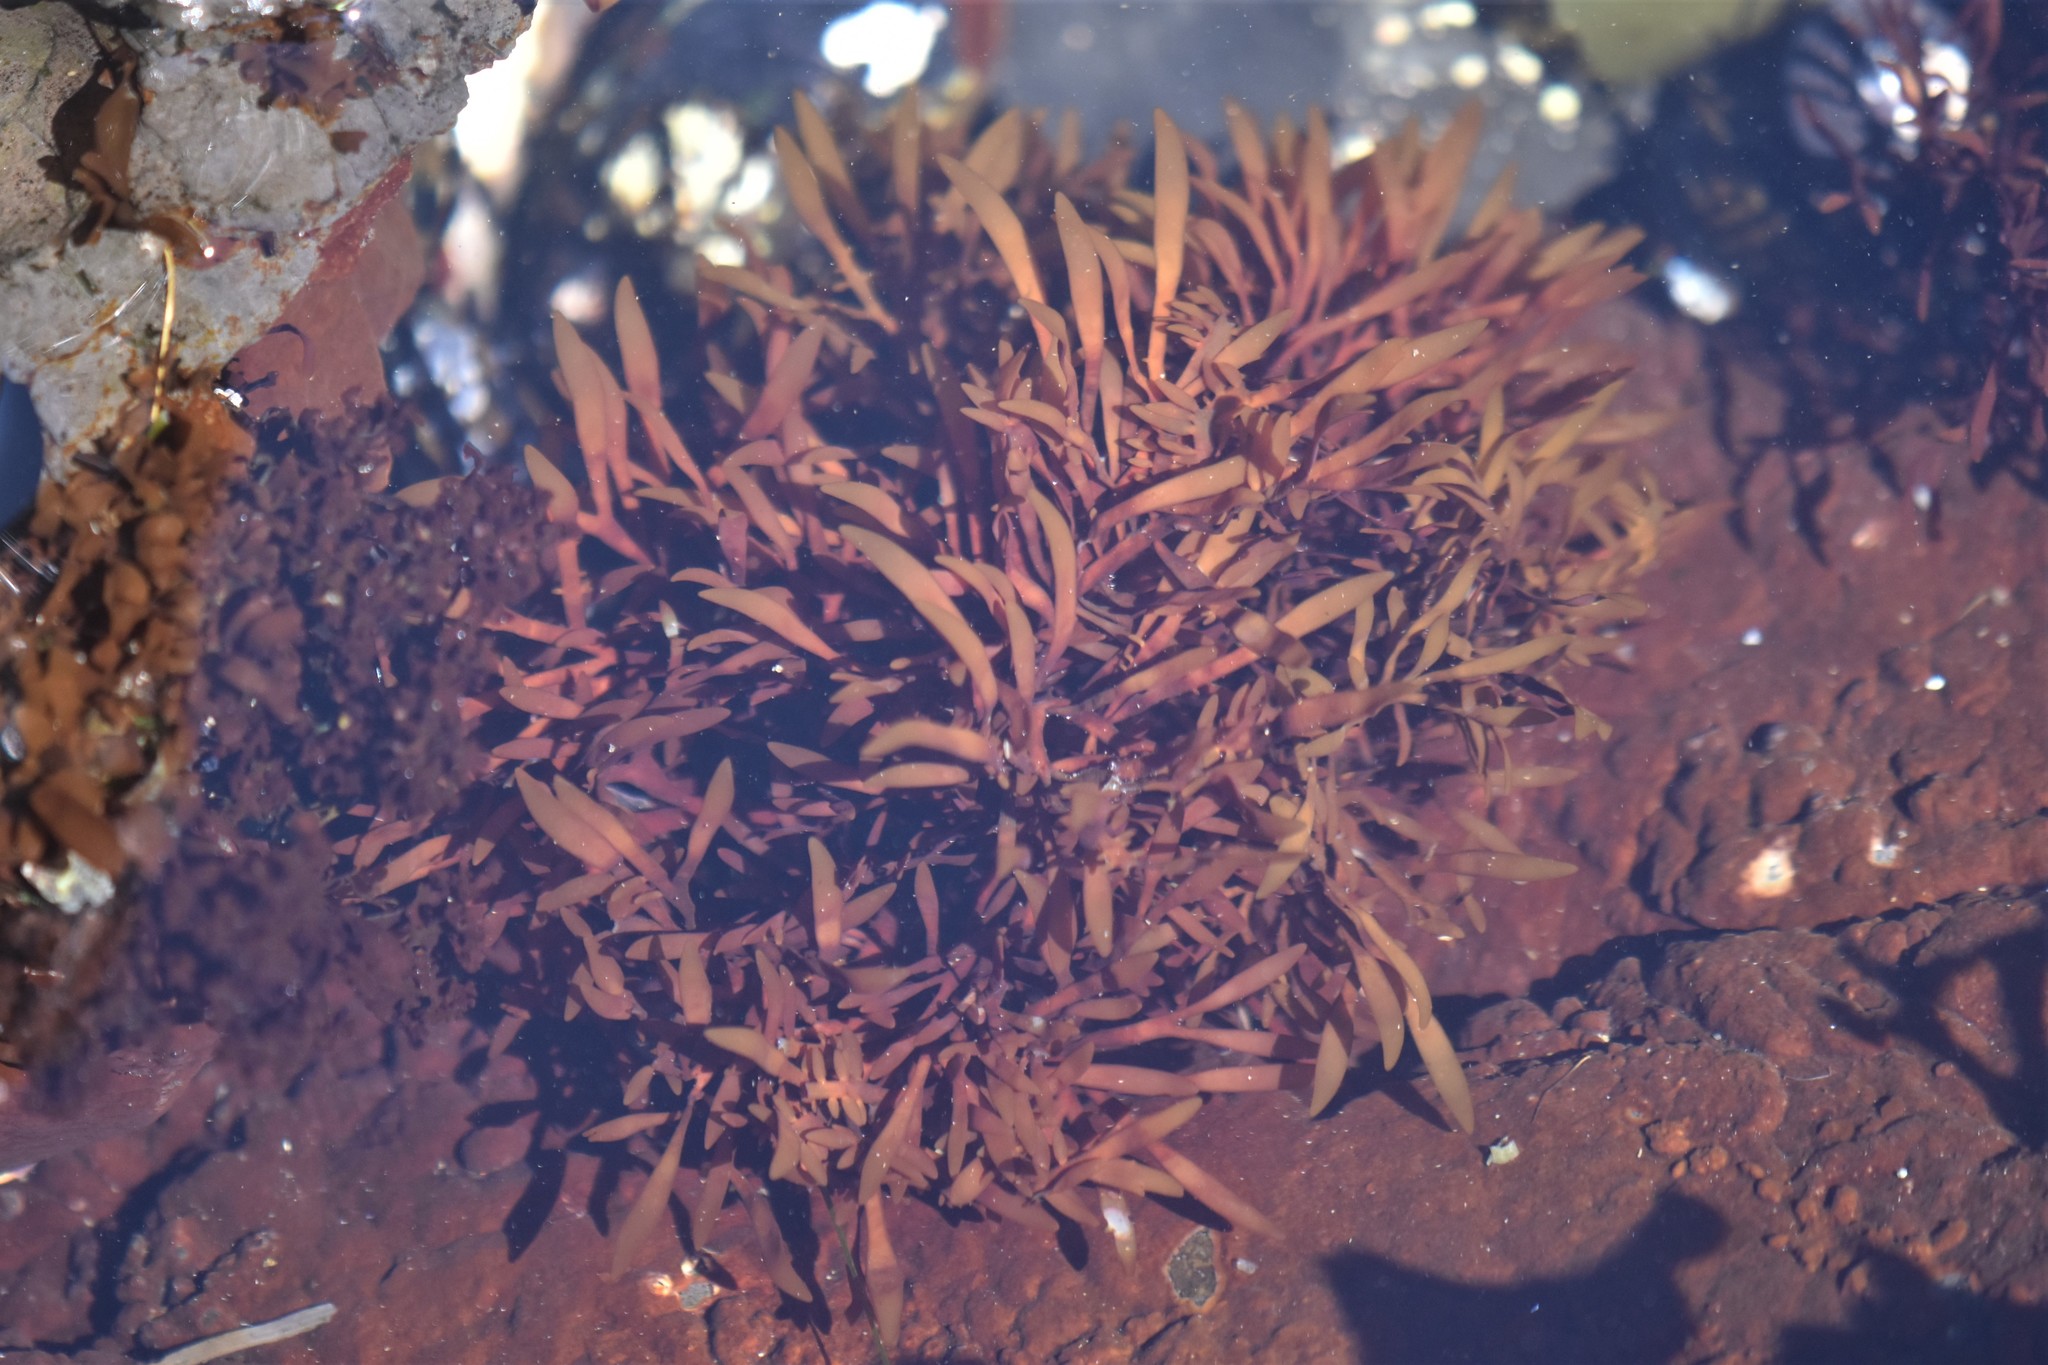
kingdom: Plantae
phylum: Rhodophyta
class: Florideophyceae
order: Halymeniales
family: Halymeniaceae
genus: Grateloupia
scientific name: Grateloupia Prionitis lanceolata
